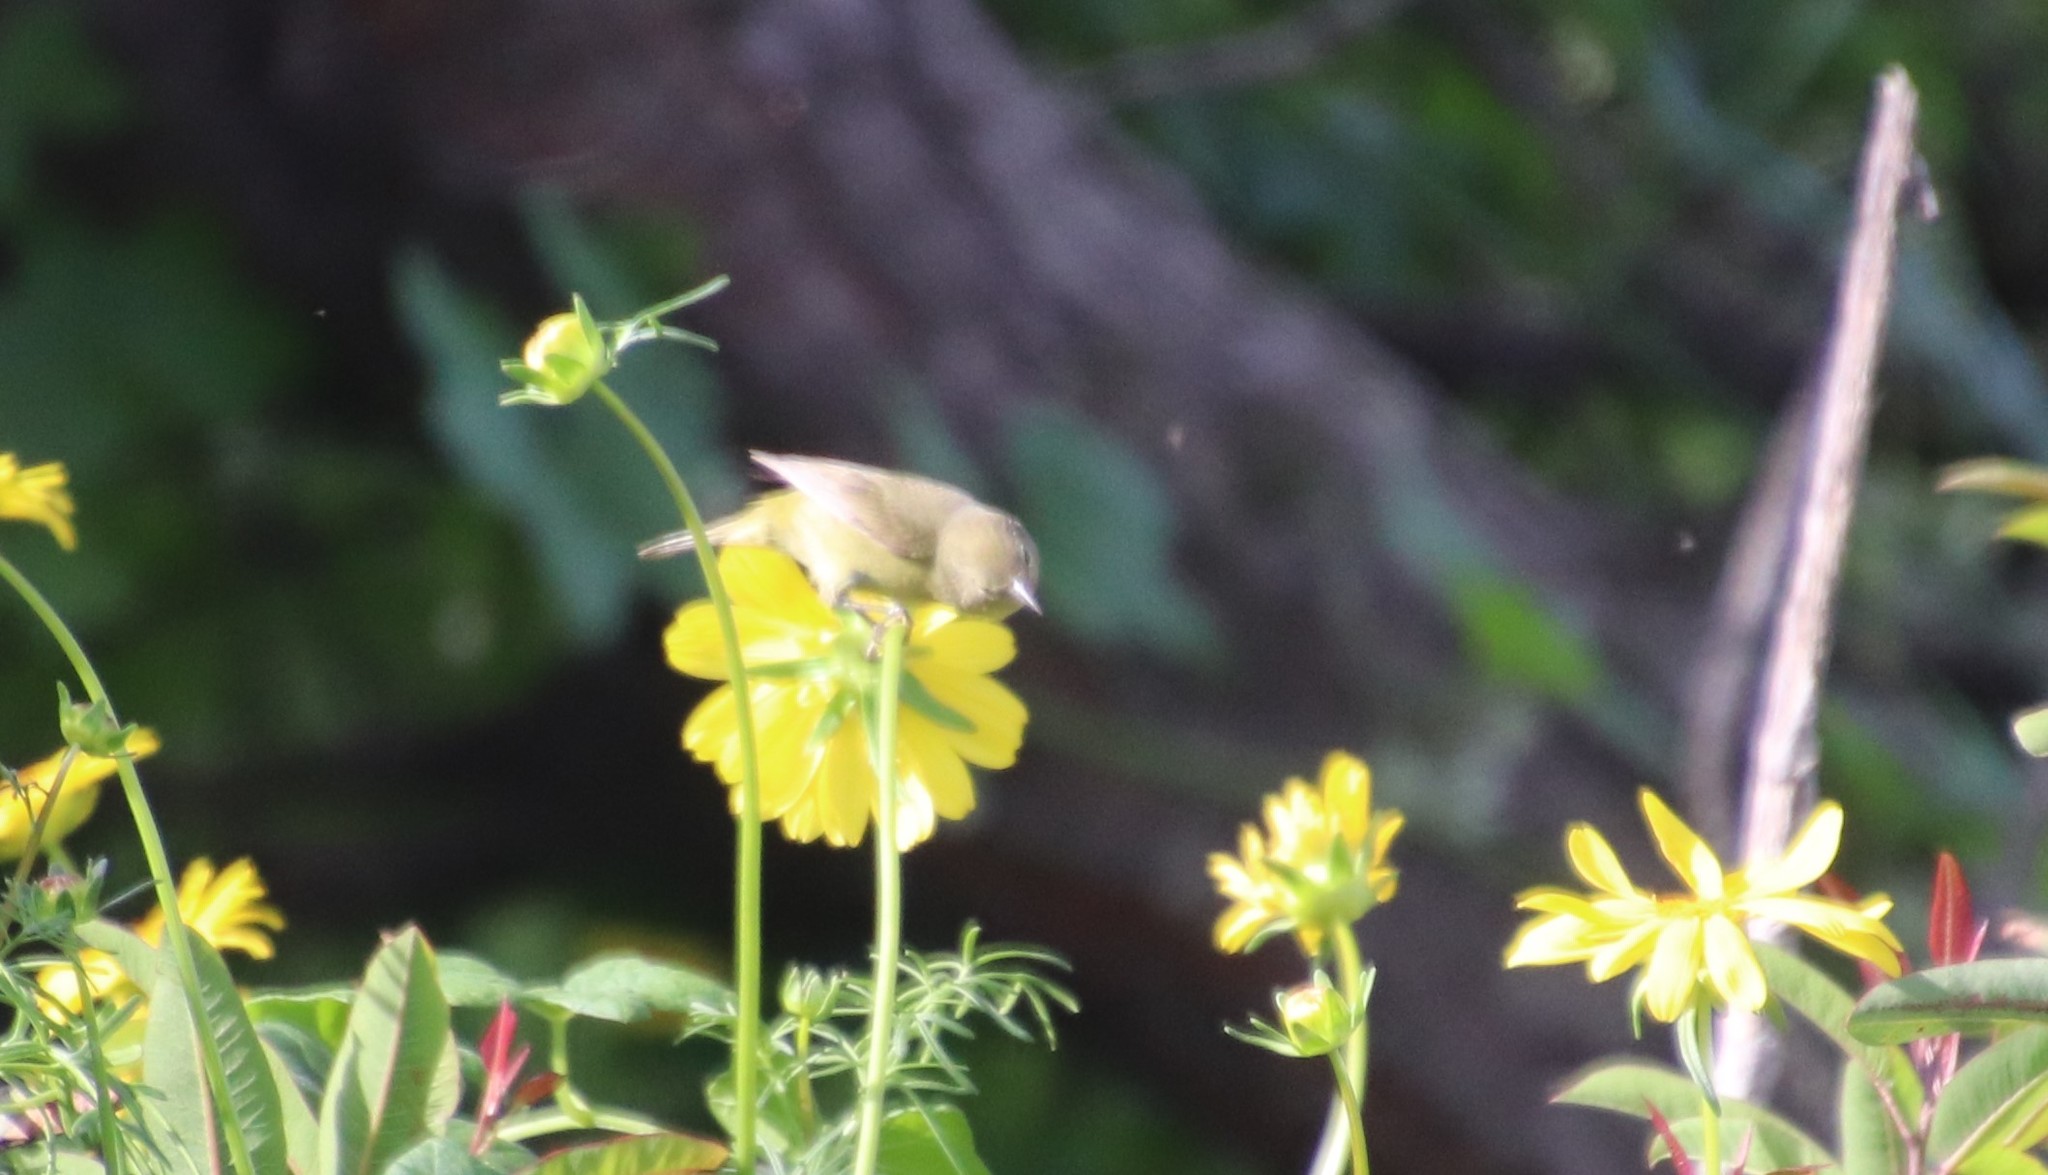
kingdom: Animalia
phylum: Chordata
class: Aves
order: Passeriformes
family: Parulidae
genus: Leiothlypis
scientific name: Leiothlypis celata
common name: Orange-crowned warbler
